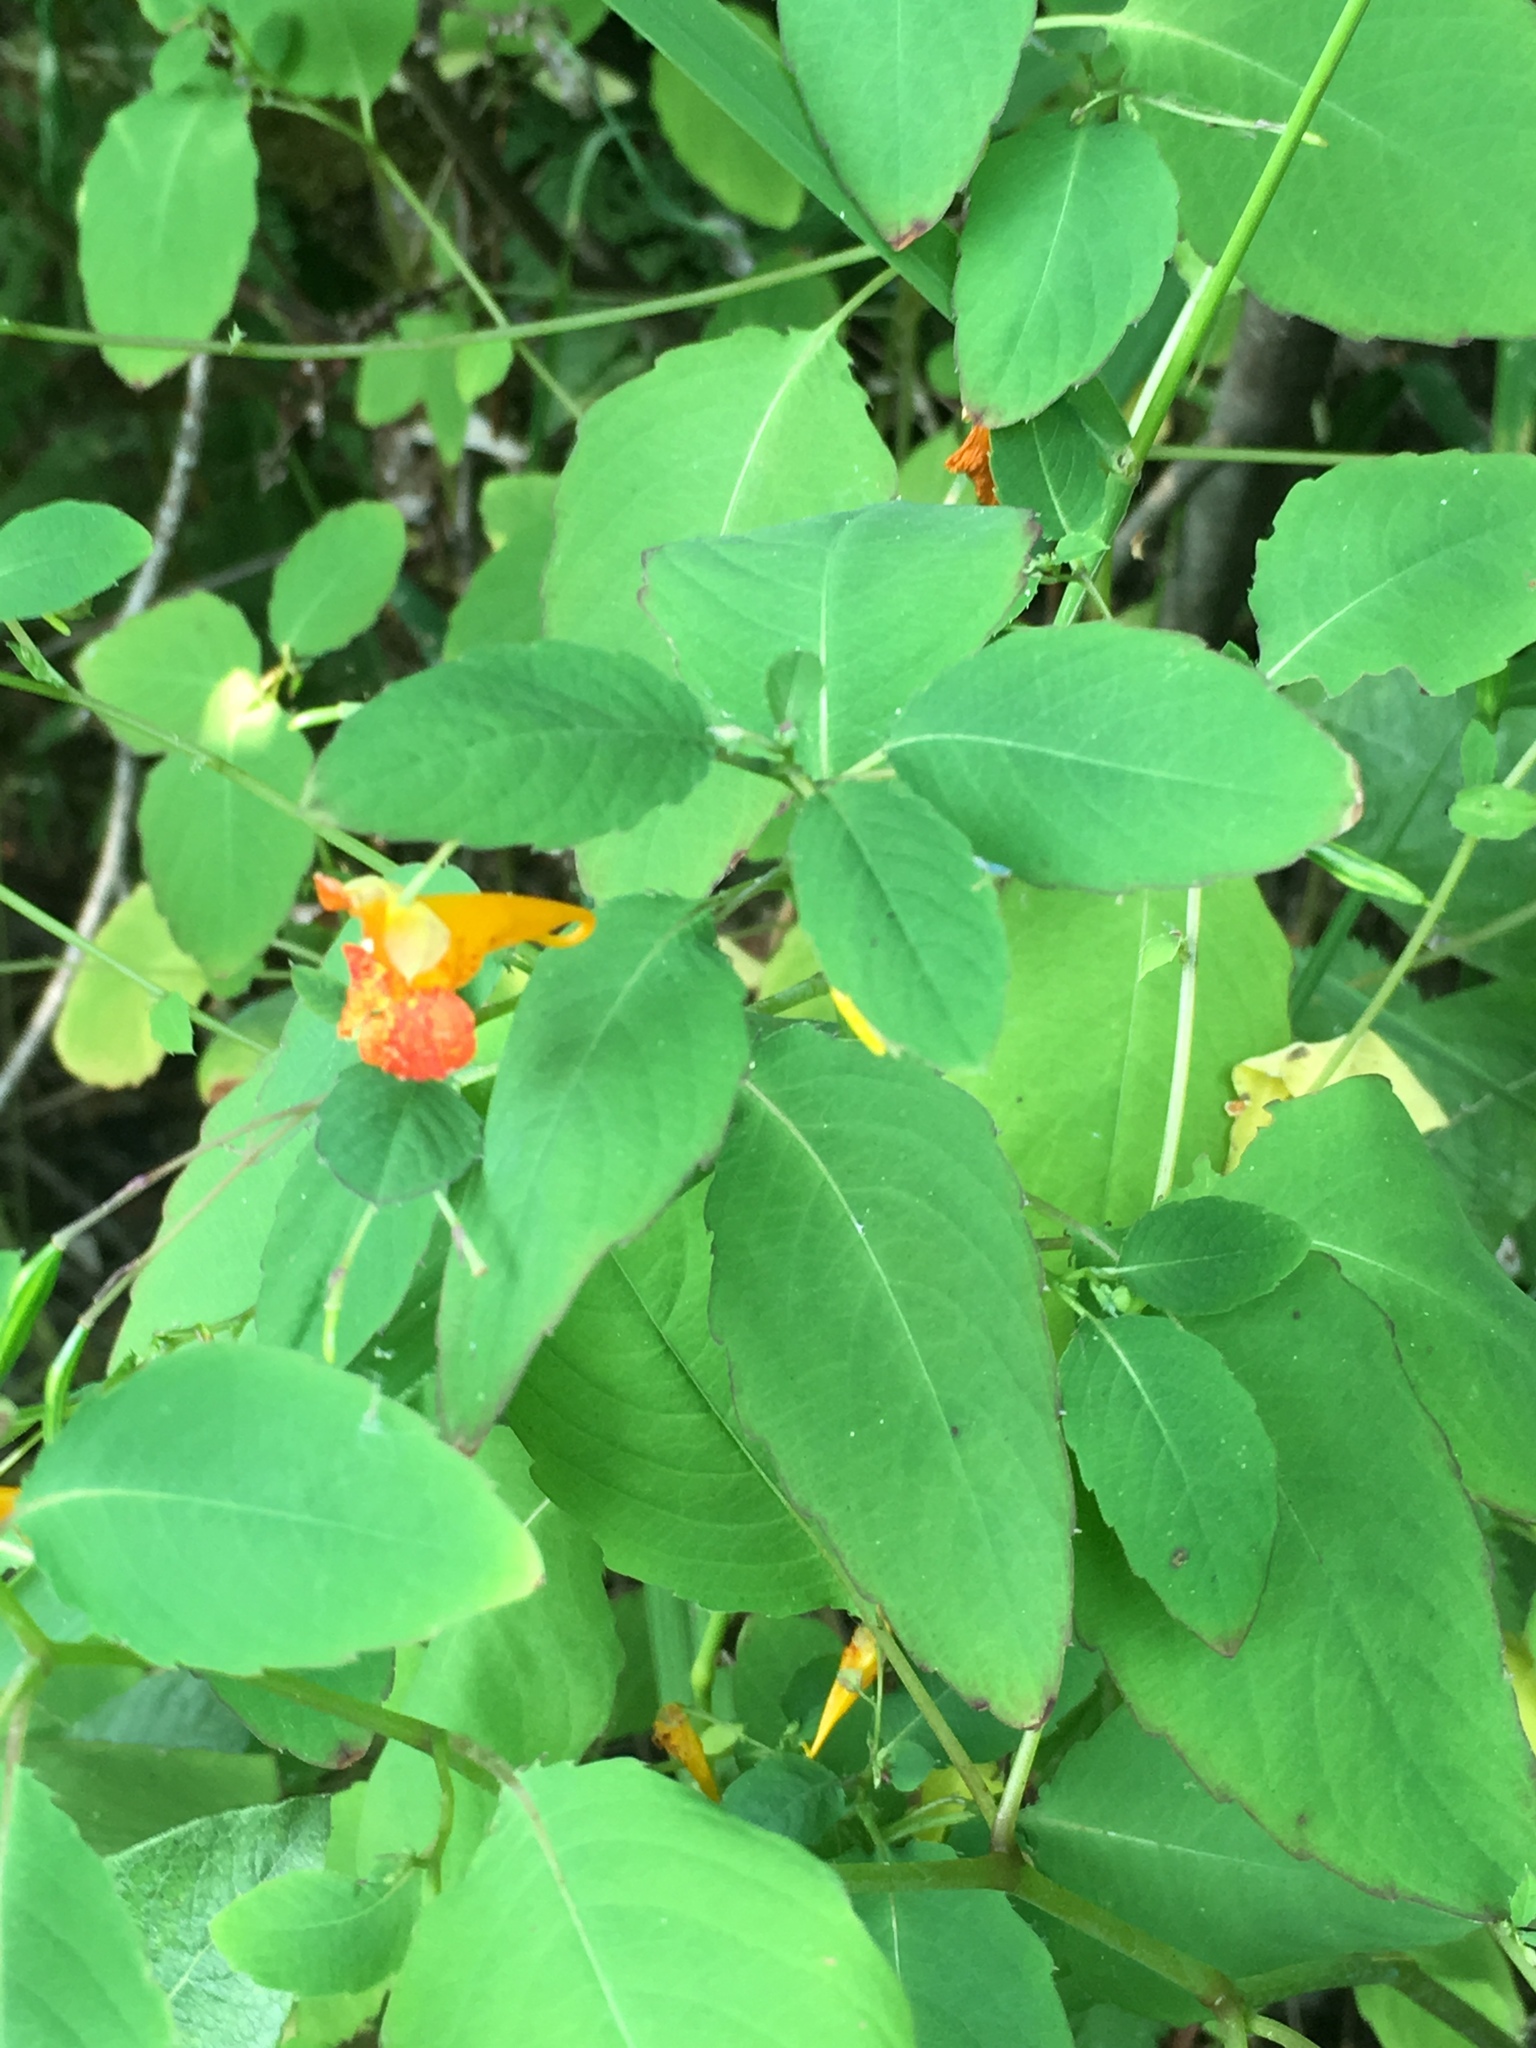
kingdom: Plantae
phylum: Tracheophyta
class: Magnoliopsida
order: Ericales
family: Balsaminaceae
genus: Impatiens
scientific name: Impatiens capensis
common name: Orange balsam
